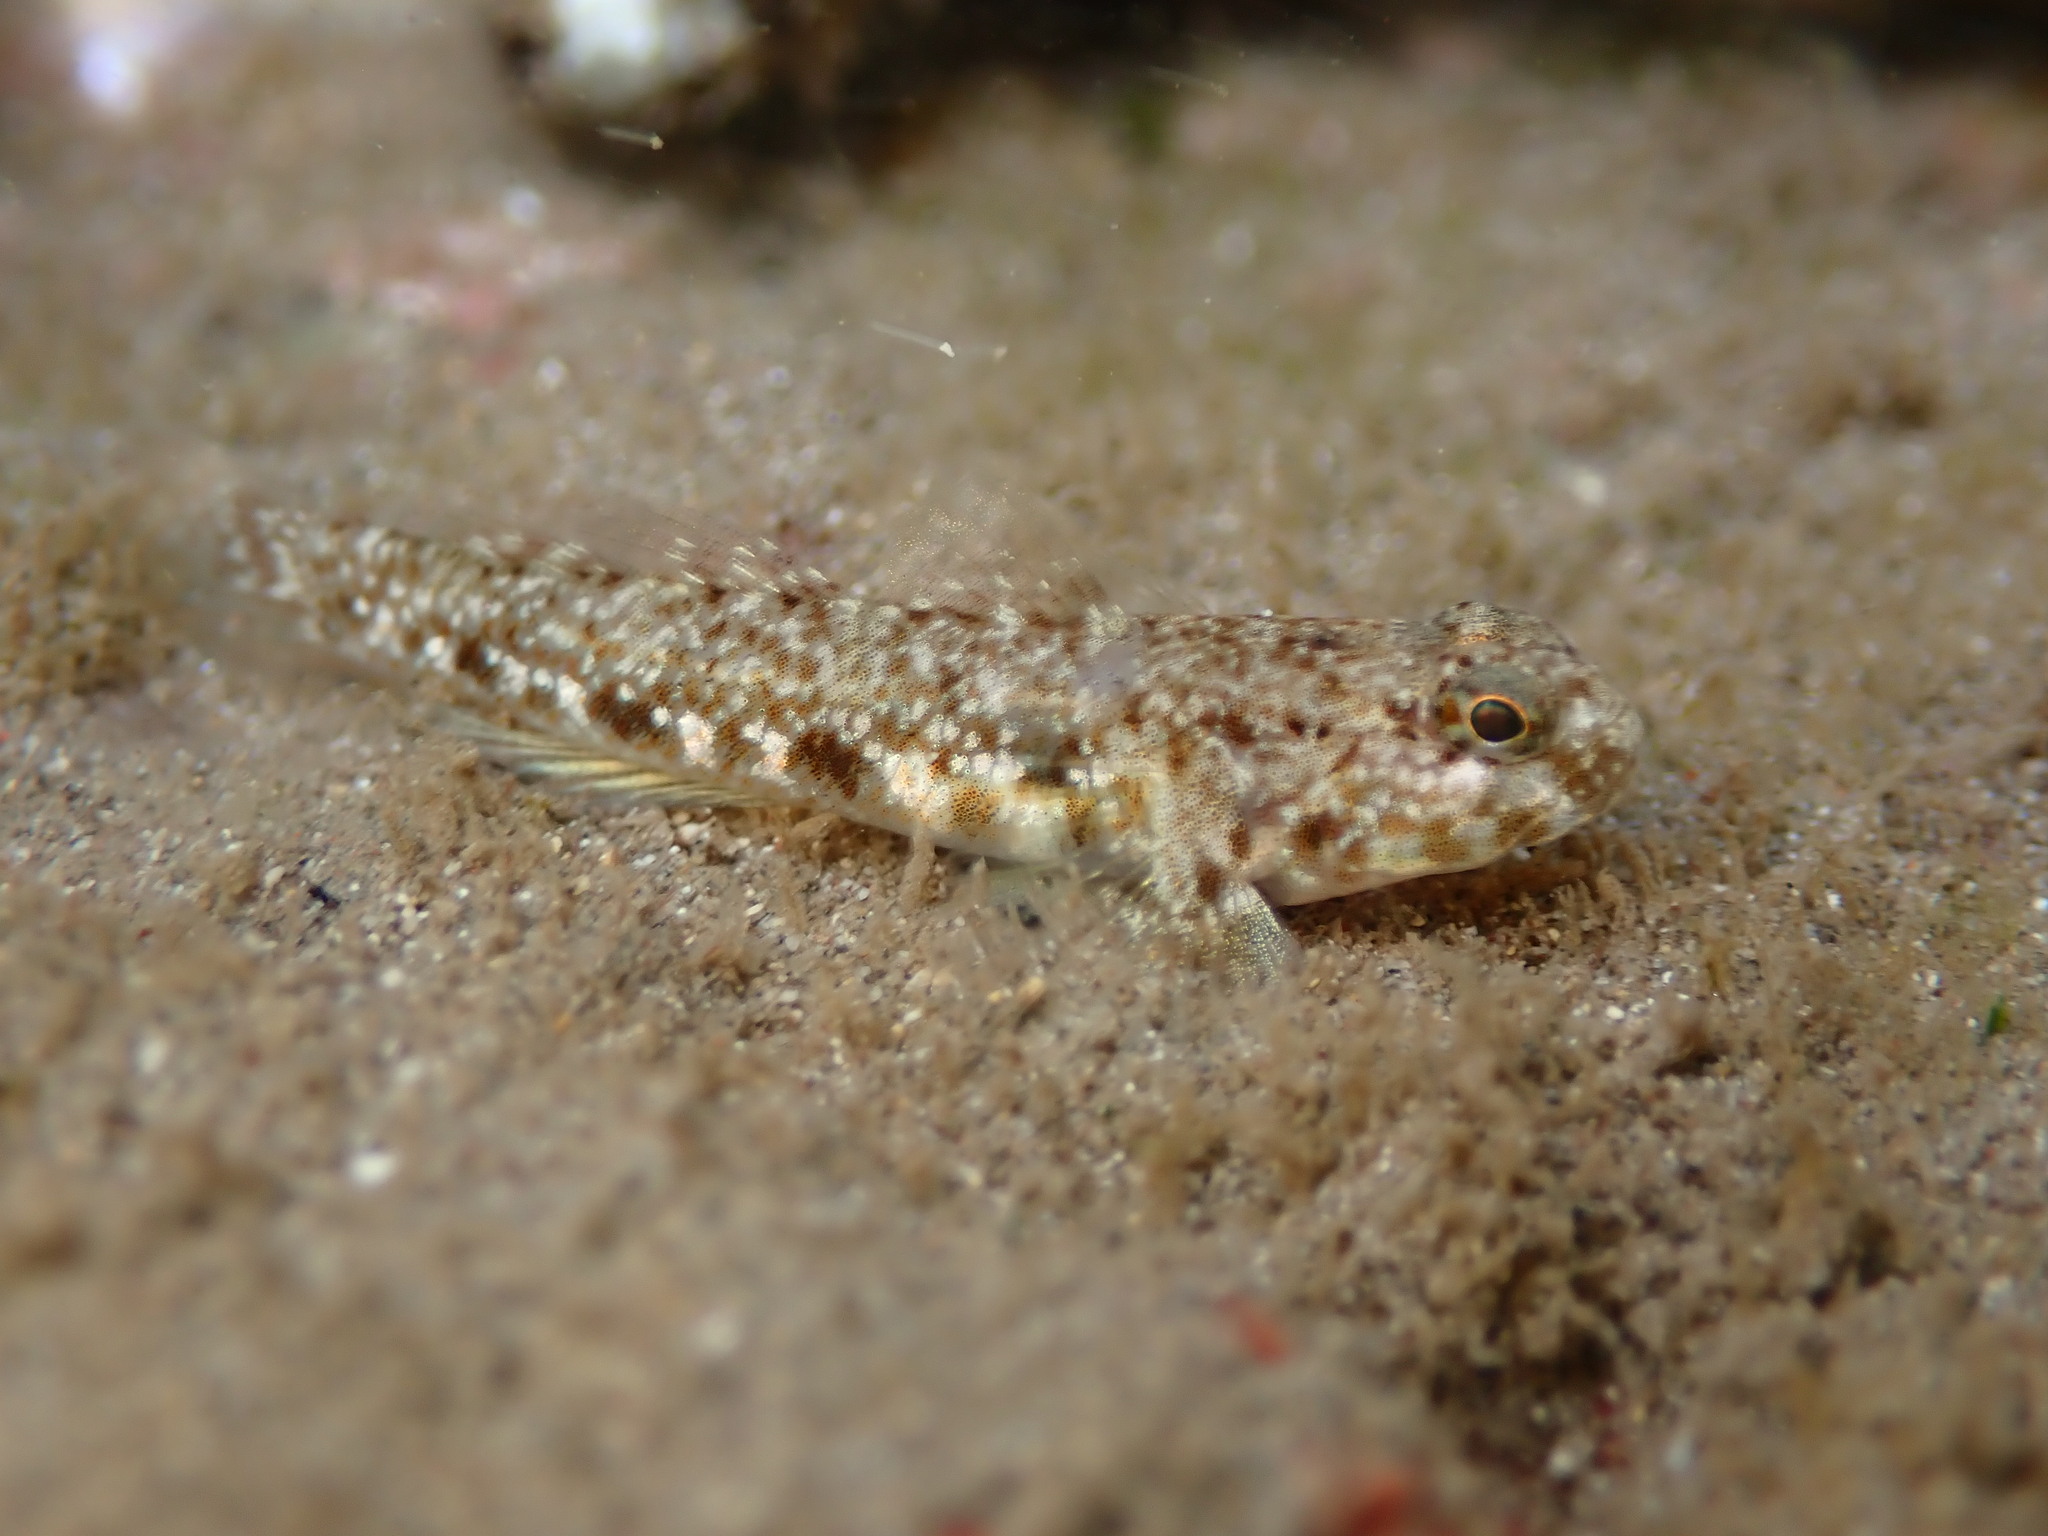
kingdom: Animalia
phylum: Chordata
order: Perciformes
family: Gobiidae
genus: Bathygobius
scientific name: Bathygobius cocosensis
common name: Cocos frillgoby
